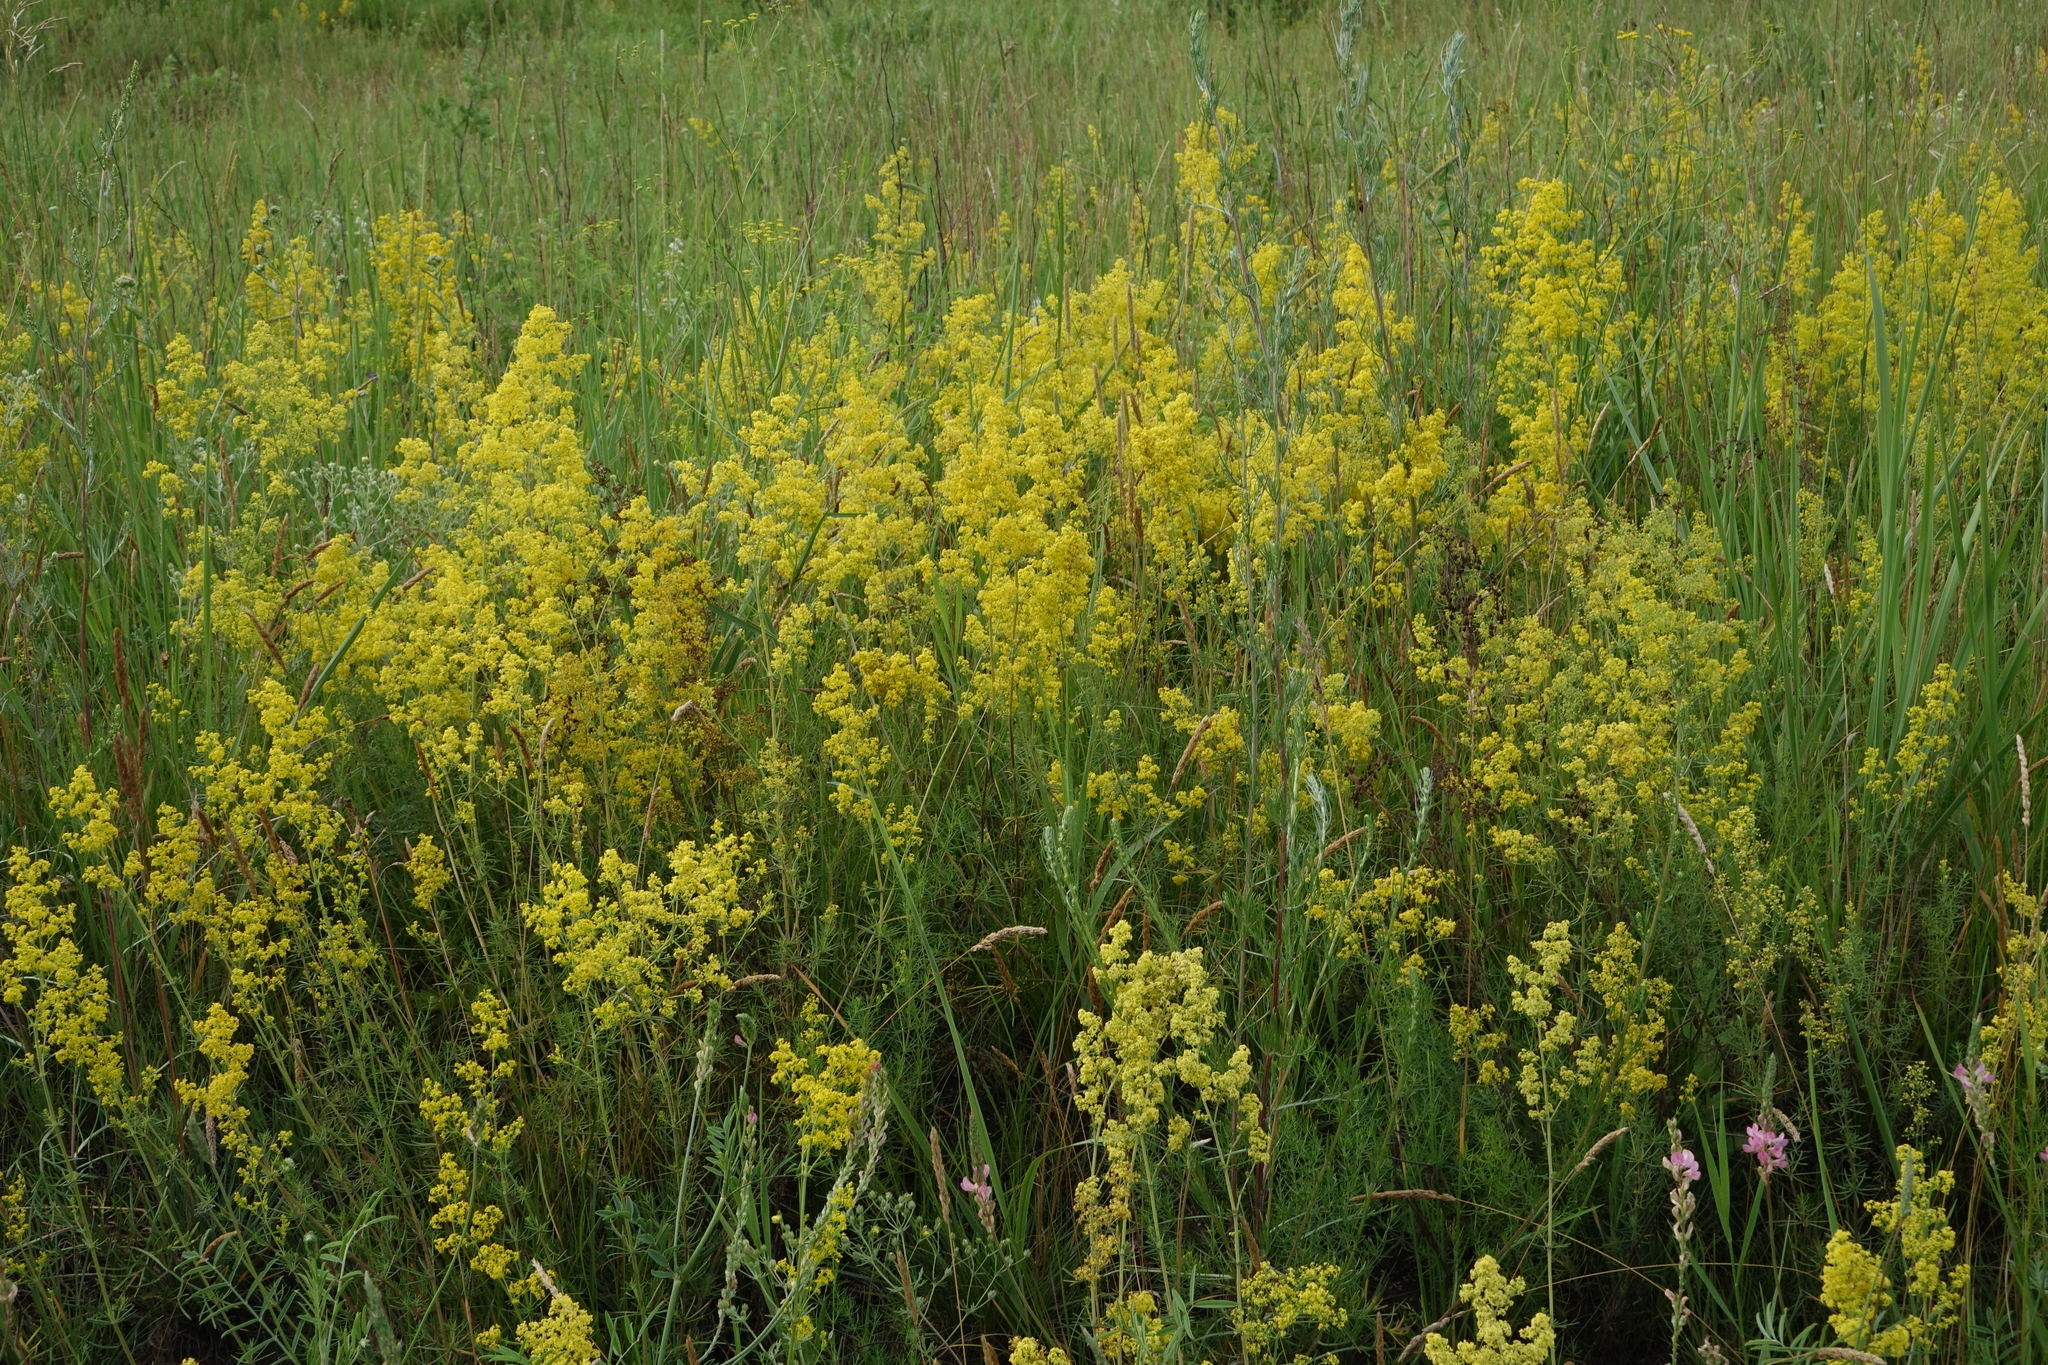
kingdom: Plantae
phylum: Tracheophyta
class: Magnoliopsida
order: Gentianales
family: Rubiaceae
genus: Galium
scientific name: Galium verum
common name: Lady's bedstraw
